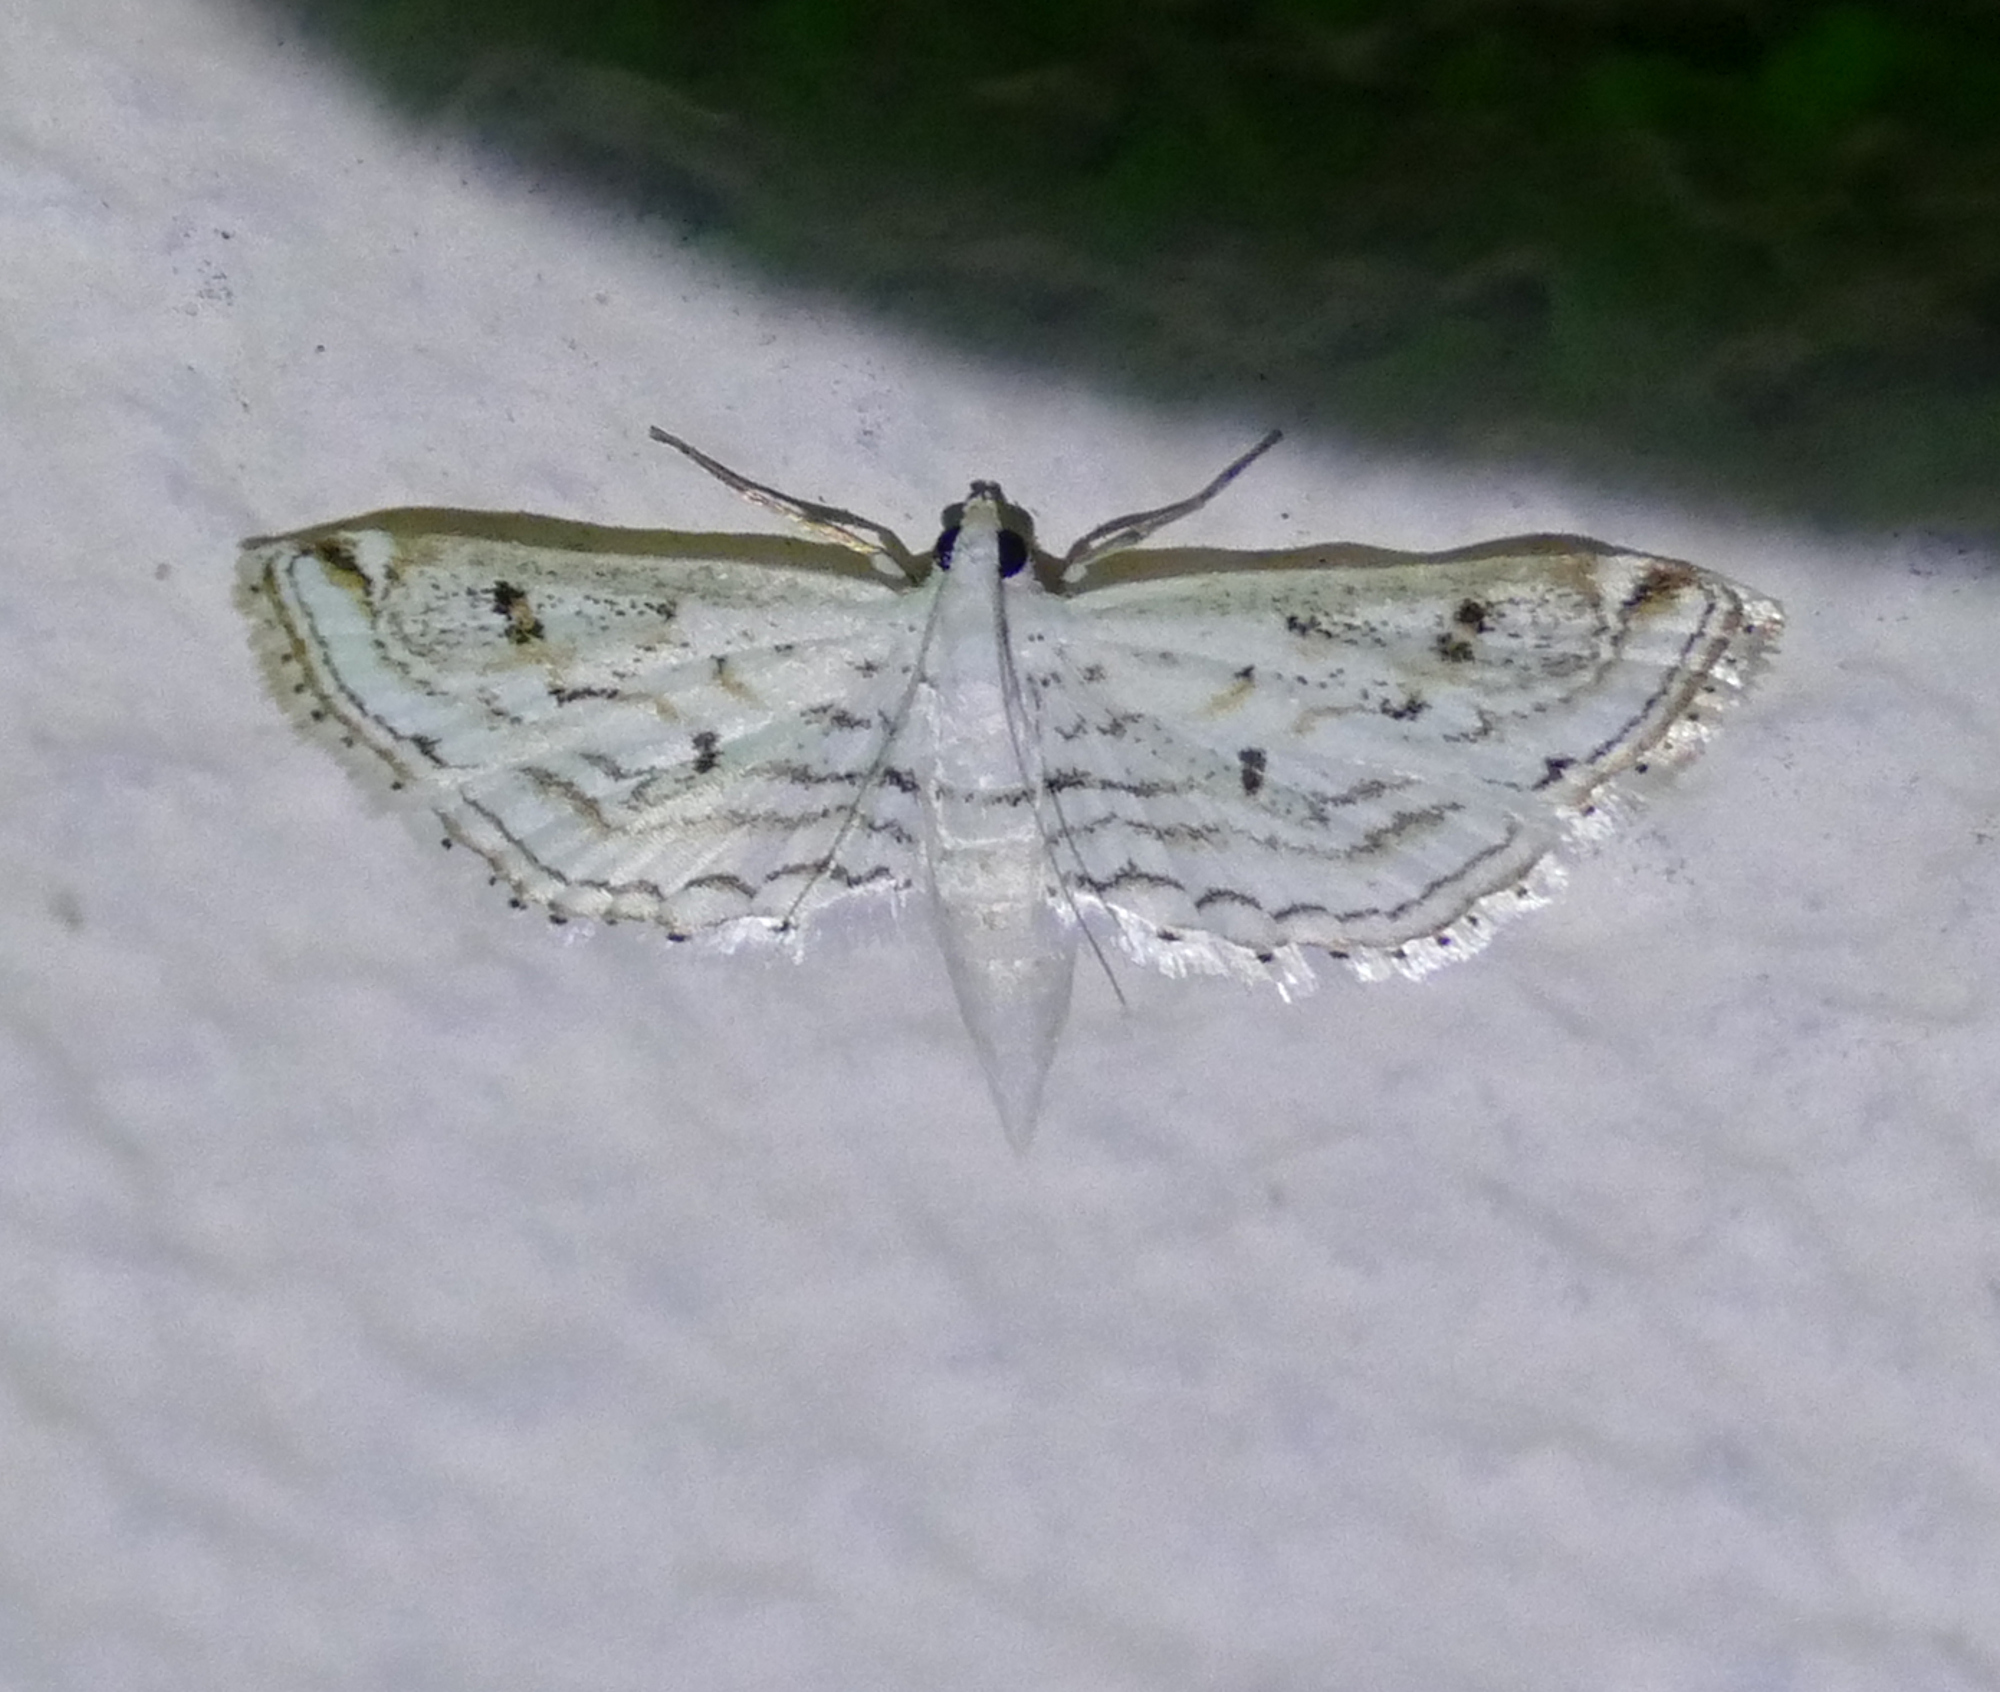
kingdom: Animalia
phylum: Arthropoda
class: Insecta
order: Lepidoptera
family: Crambidae
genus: Parapoynx
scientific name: Parapoynx allionealis
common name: Bladderwort casemaker
